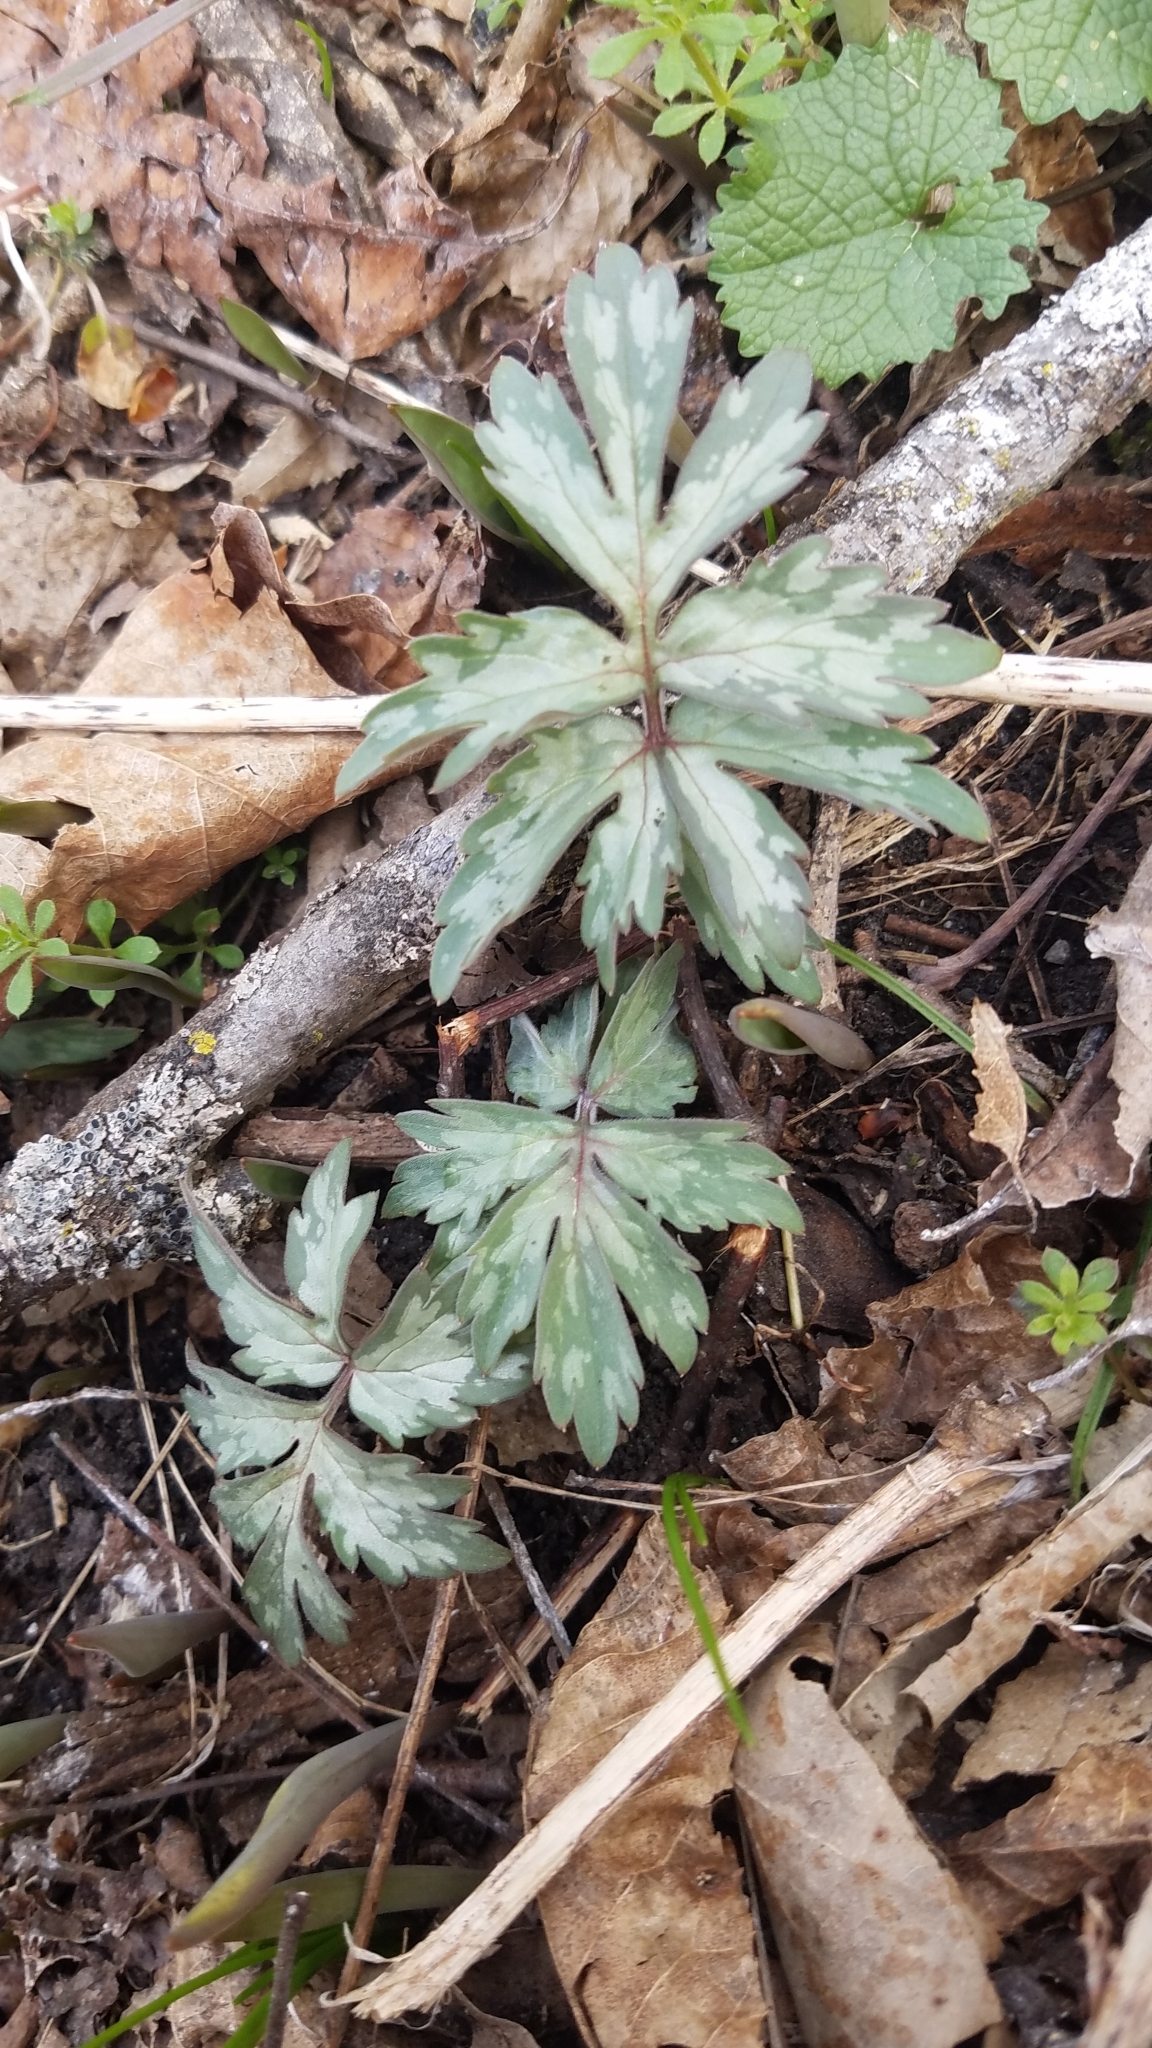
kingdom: Plantae
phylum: Tracheophyta
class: Magnoliopsida
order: Boraginales
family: Hydrophyllaceae
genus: Hydrophyllum
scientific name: Hydrophyllum virginianum
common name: Virginia waterleaf
